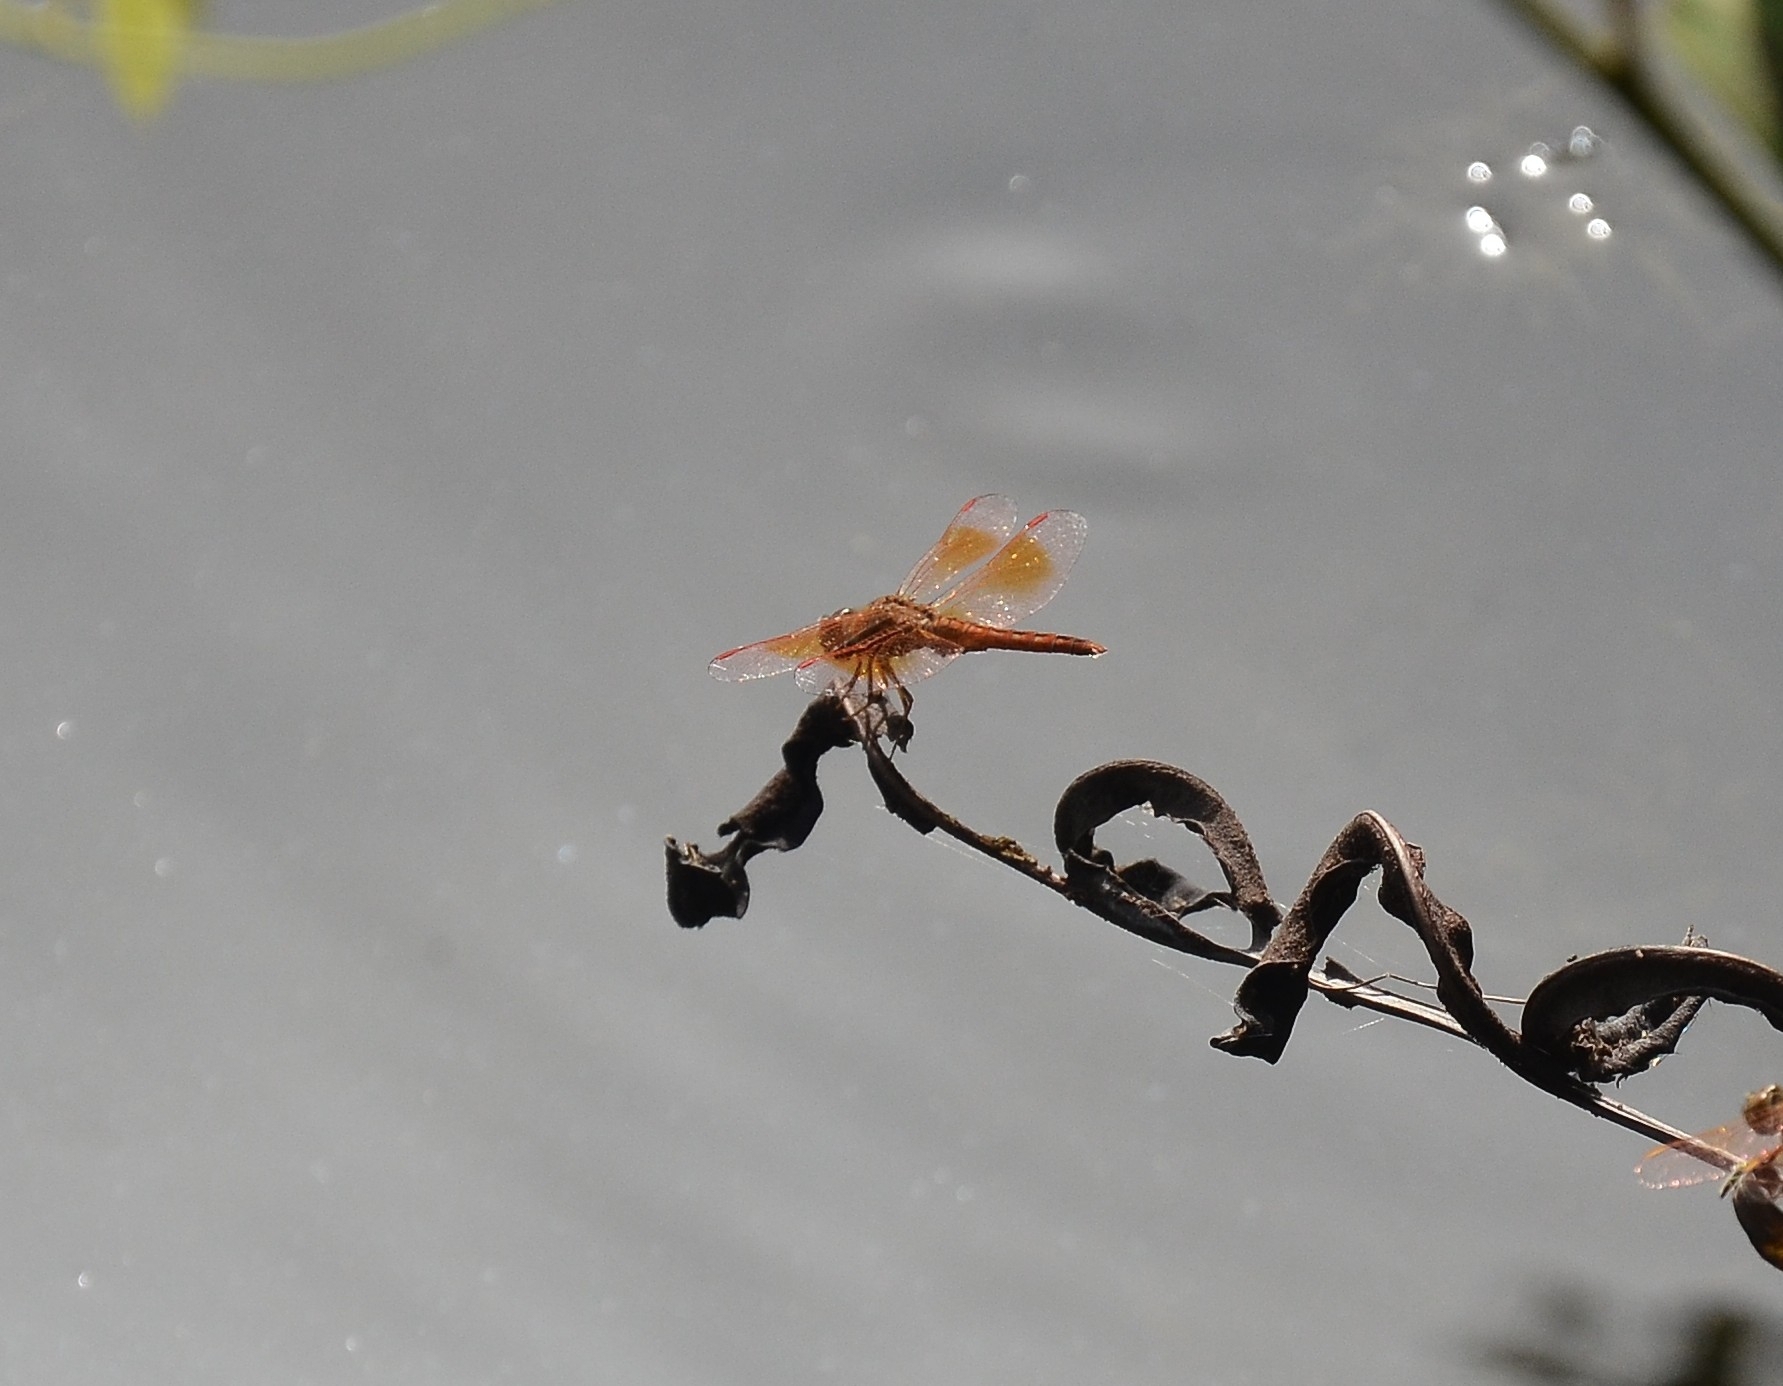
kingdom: Animalia
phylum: Arthropoda
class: Insecta
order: Odonata
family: Libellulidae
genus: Brachythemis
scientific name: Brachythemis contaminata
